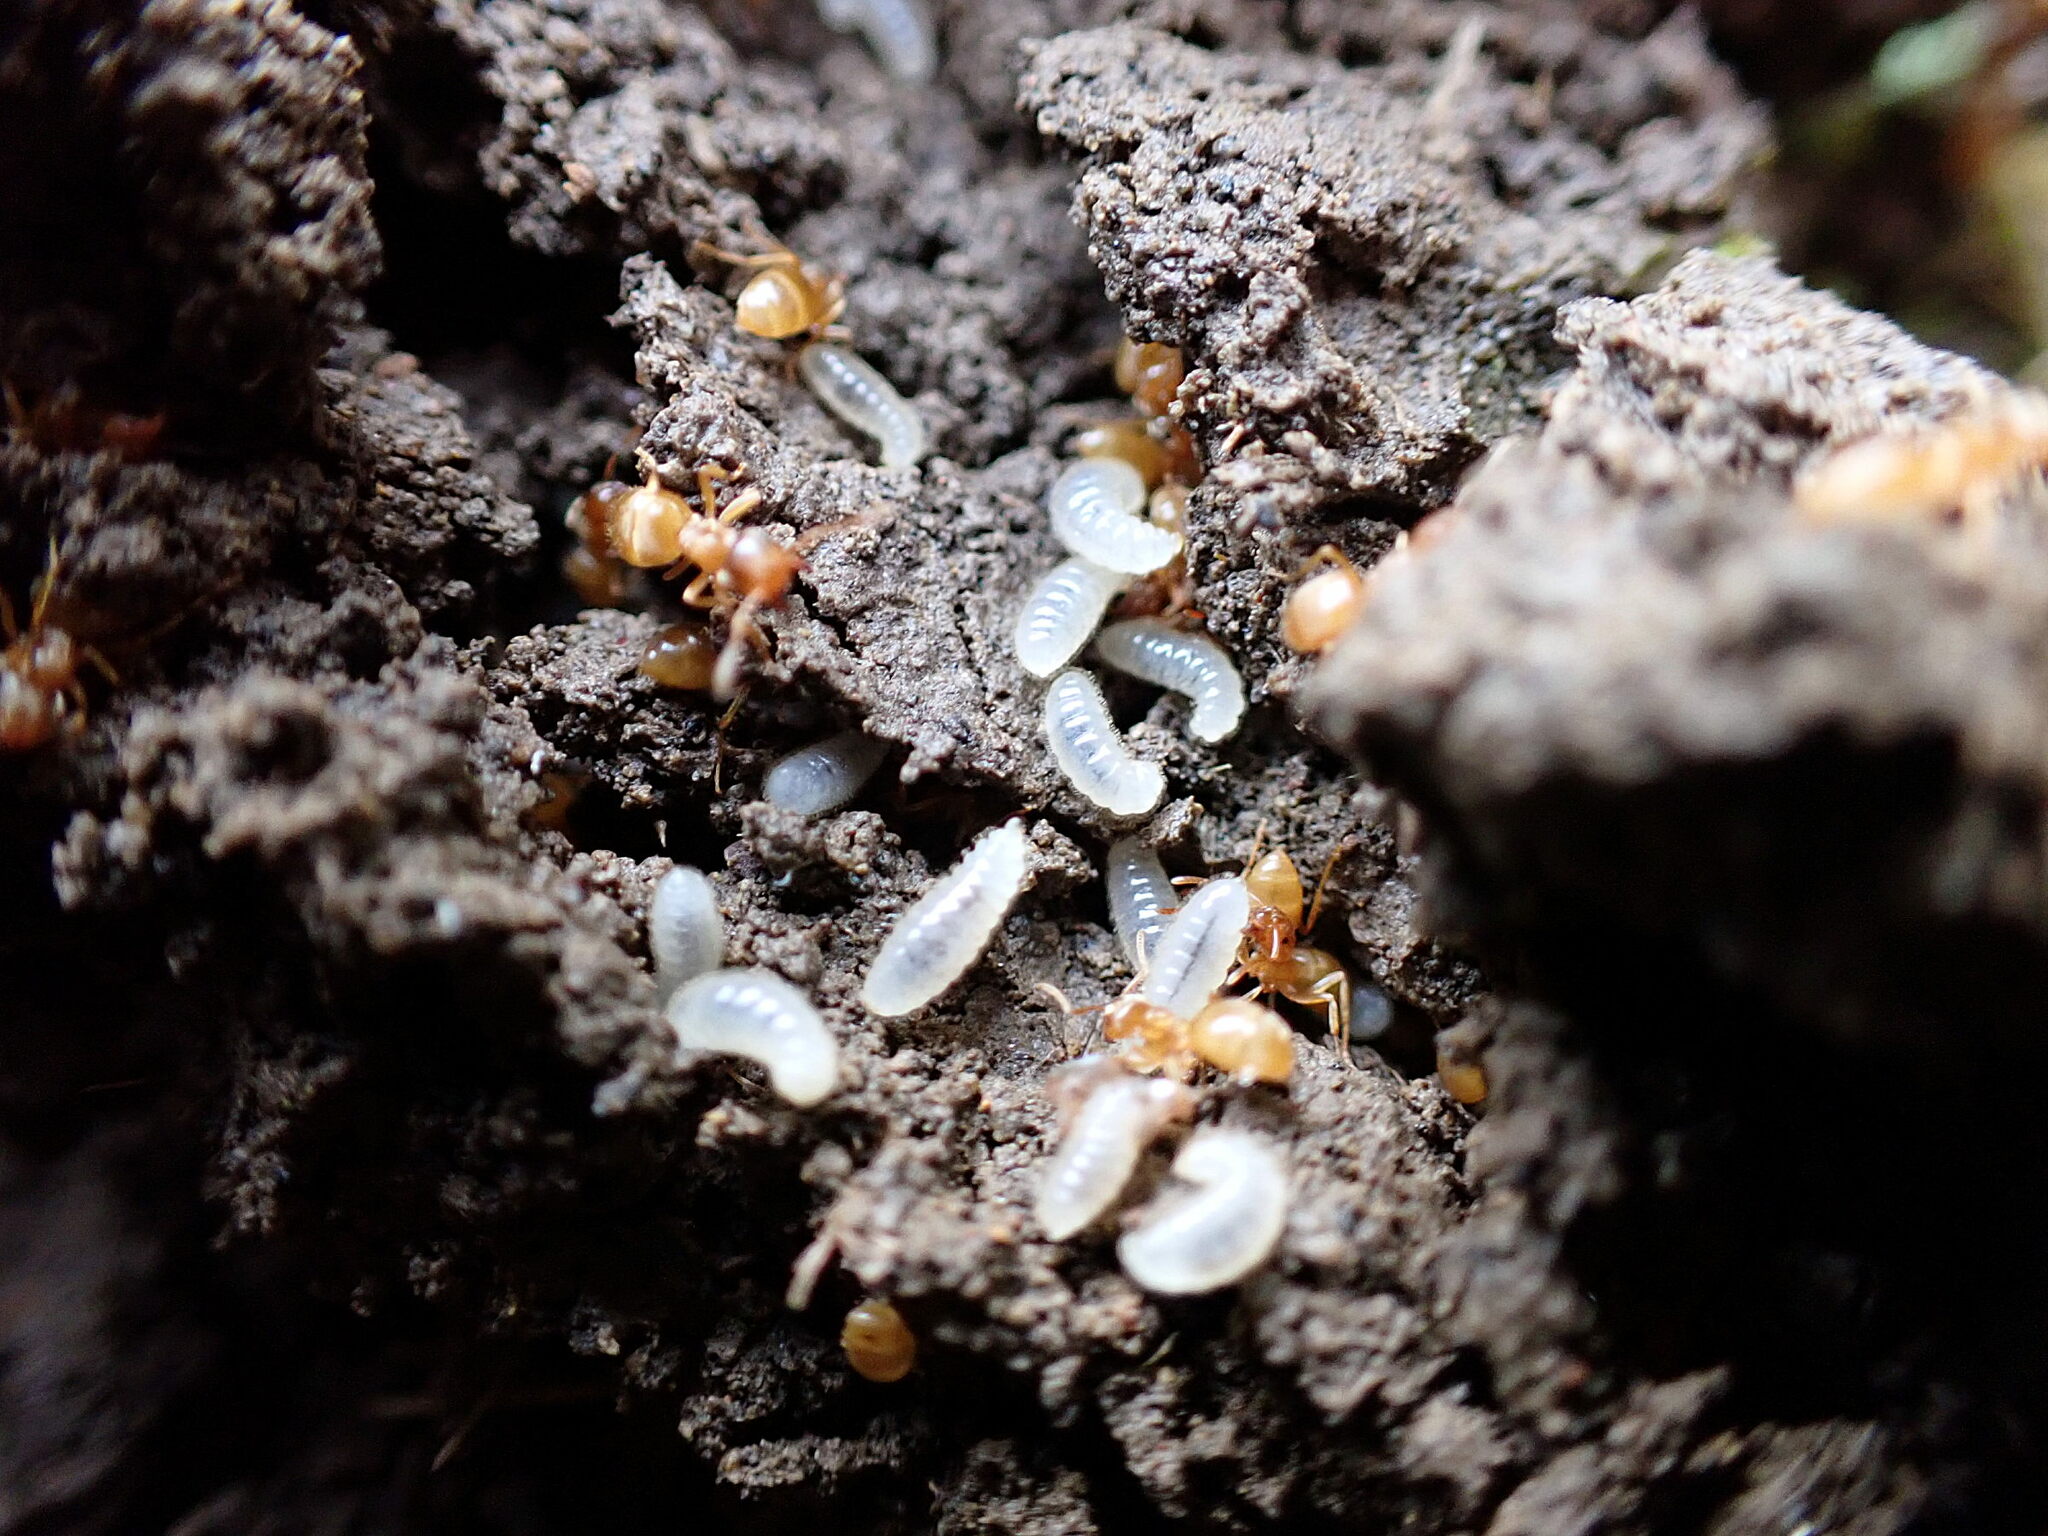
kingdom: Animalia
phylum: Arthropoda
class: Insecta
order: Hymenoptera
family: Formicidae
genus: Lasius
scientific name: Lasius flavus
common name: Blond field ant
